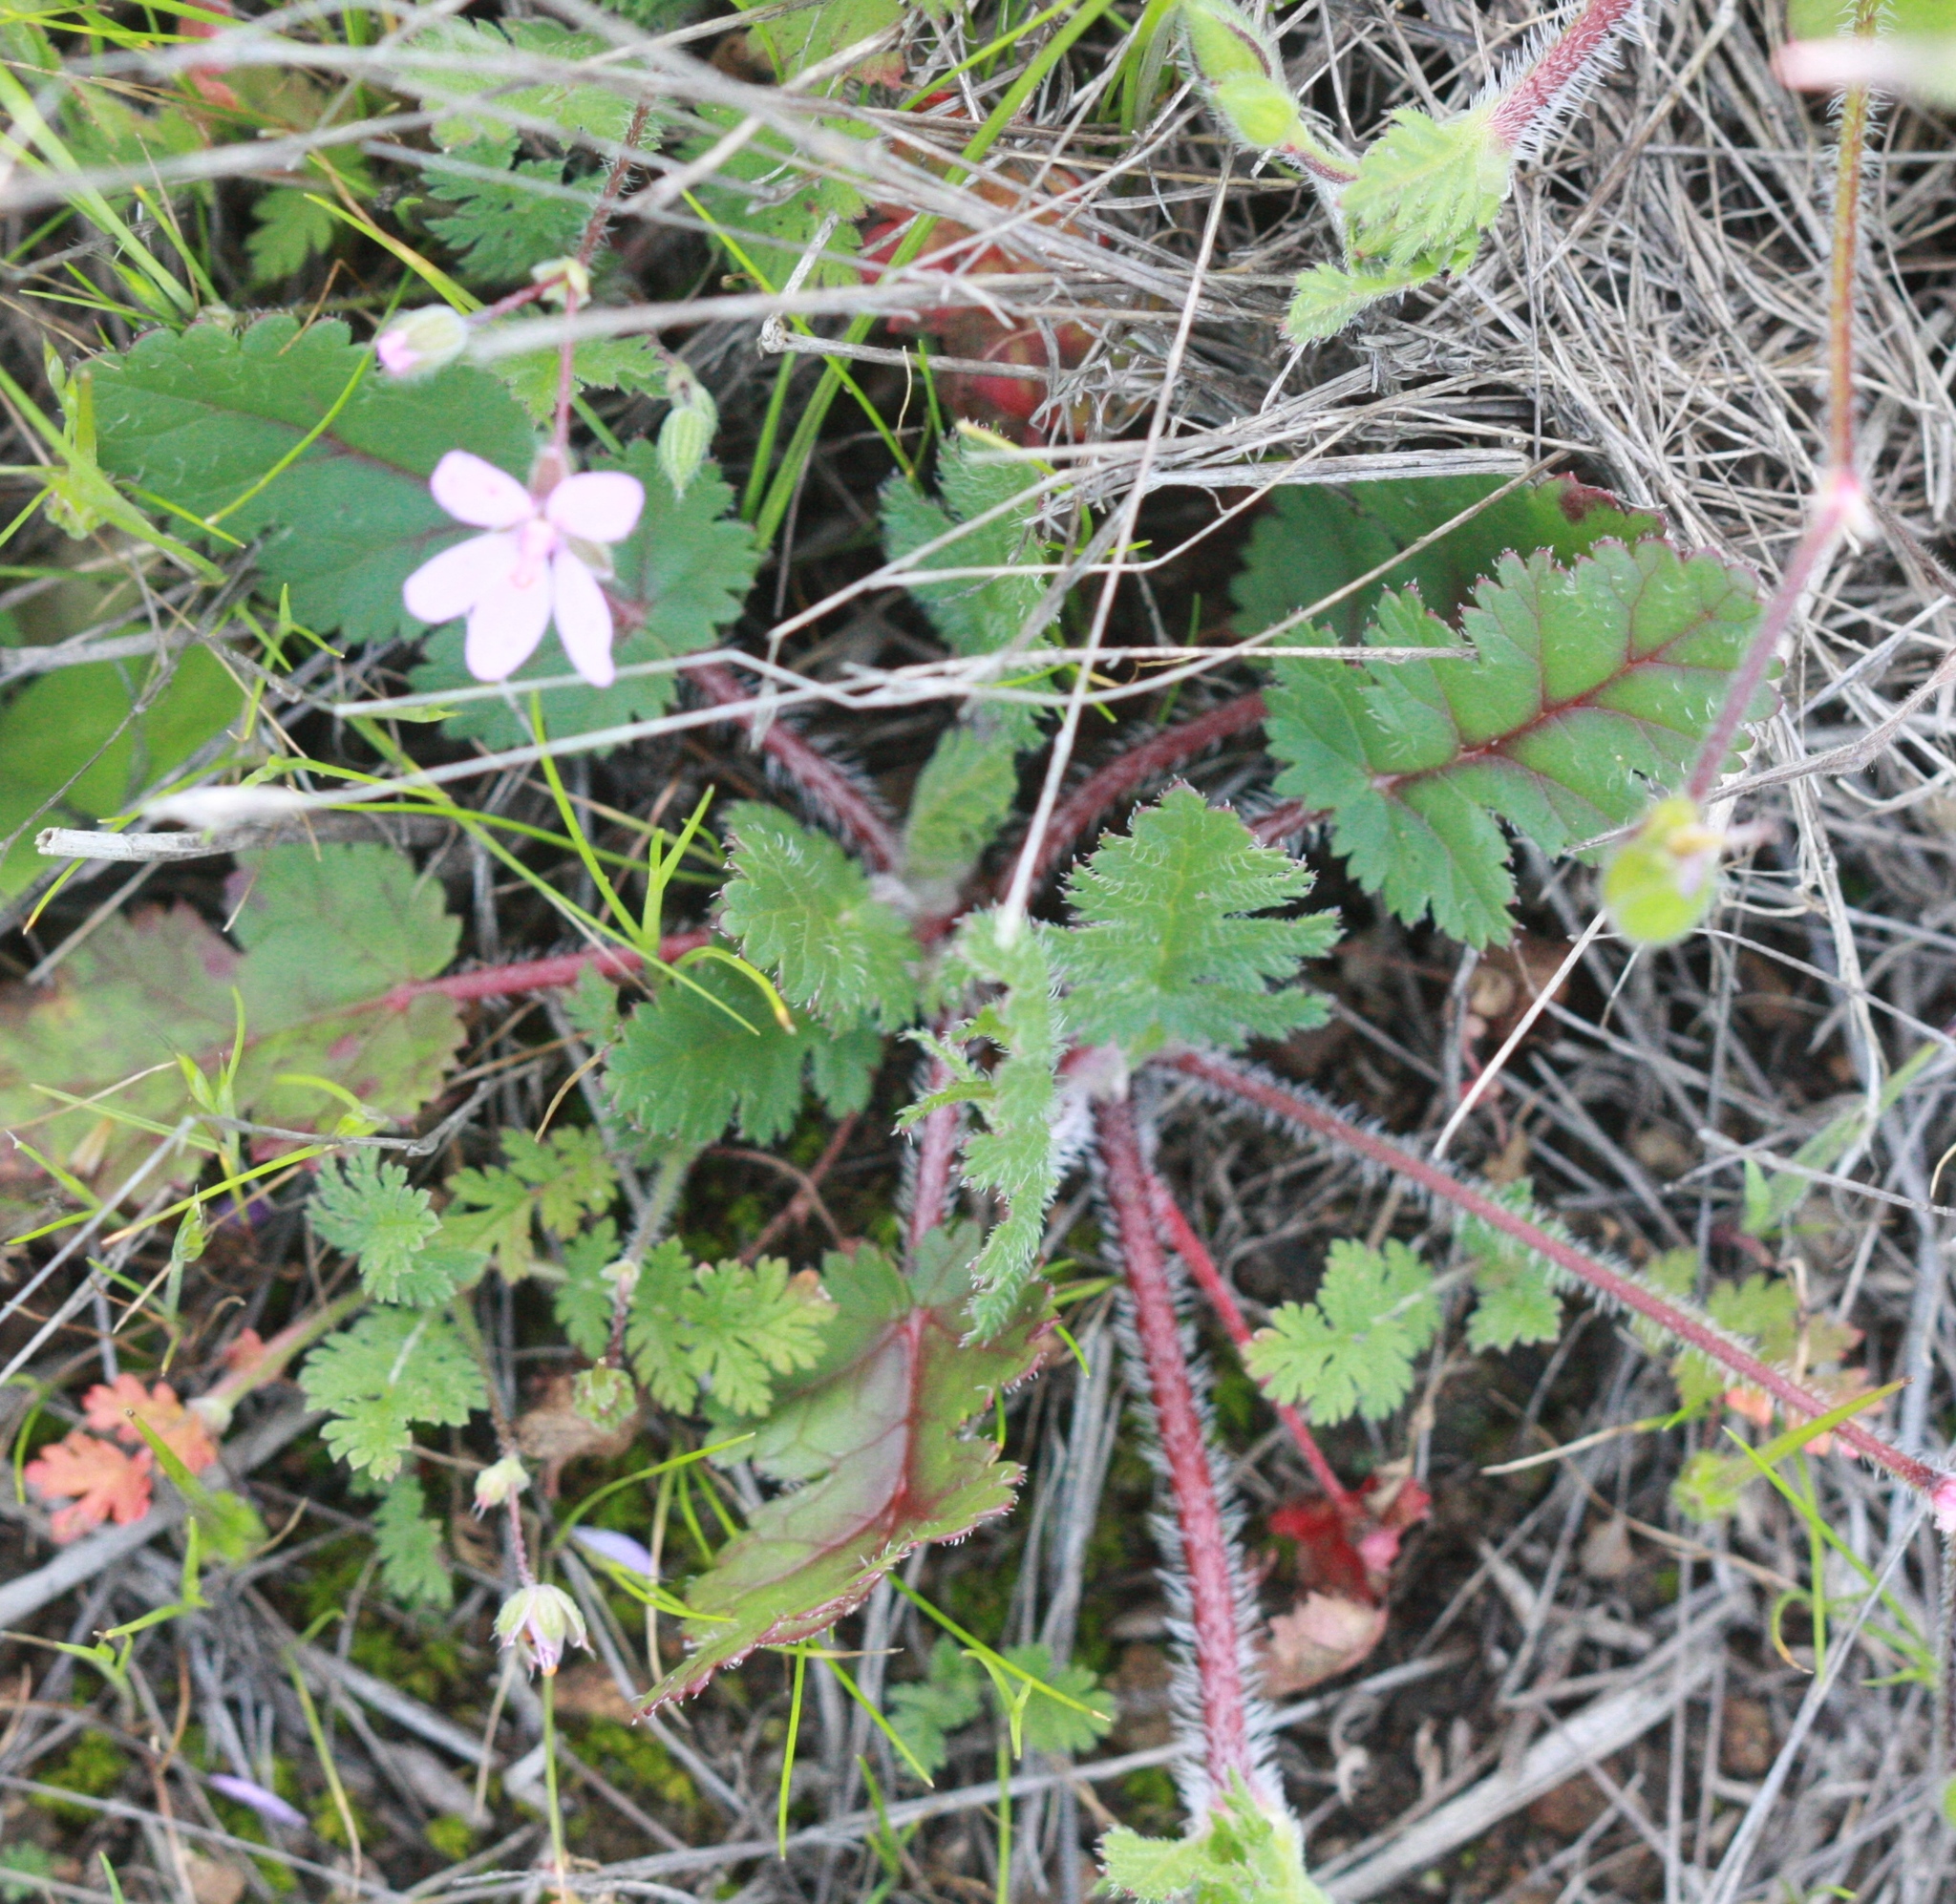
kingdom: Plantae
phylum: Tracheophyta
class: Magnoliopsida
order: Geraniales
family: Geraniaceae
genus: Erodium
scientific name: Erodium cicutarium
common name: Common stork's-bill
